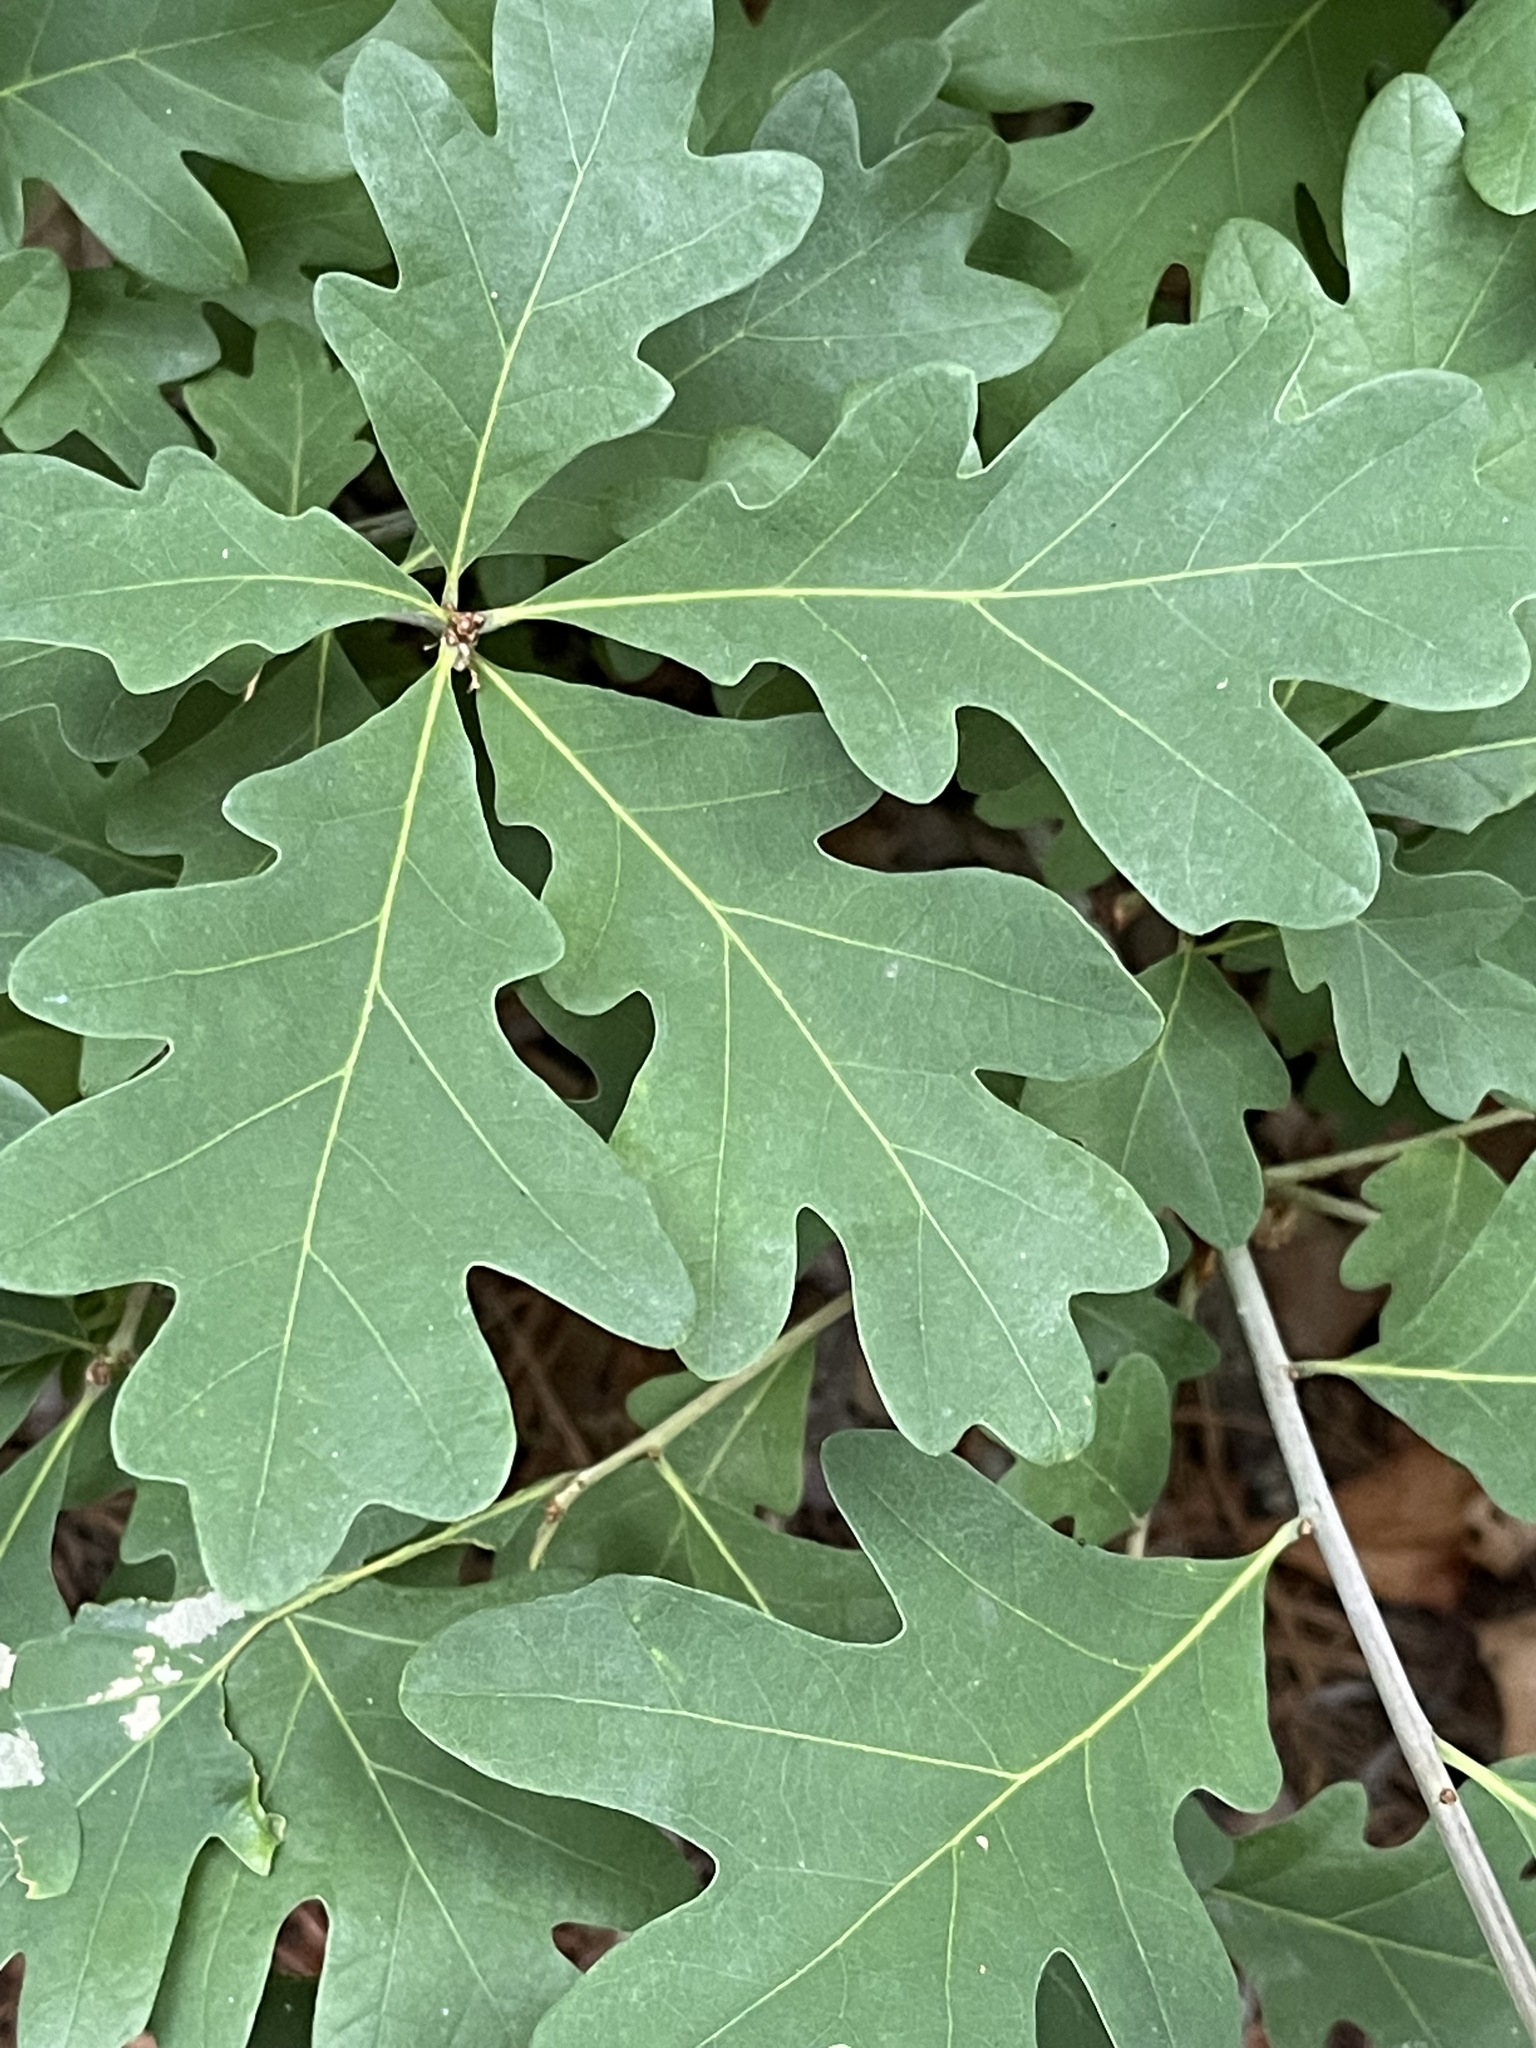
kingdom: Plantae
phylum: Tracheophyta
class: Magnoliopsida
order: Fagales
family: Fagaceae
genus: Quercus
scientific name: Quercus alba
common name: White oak
